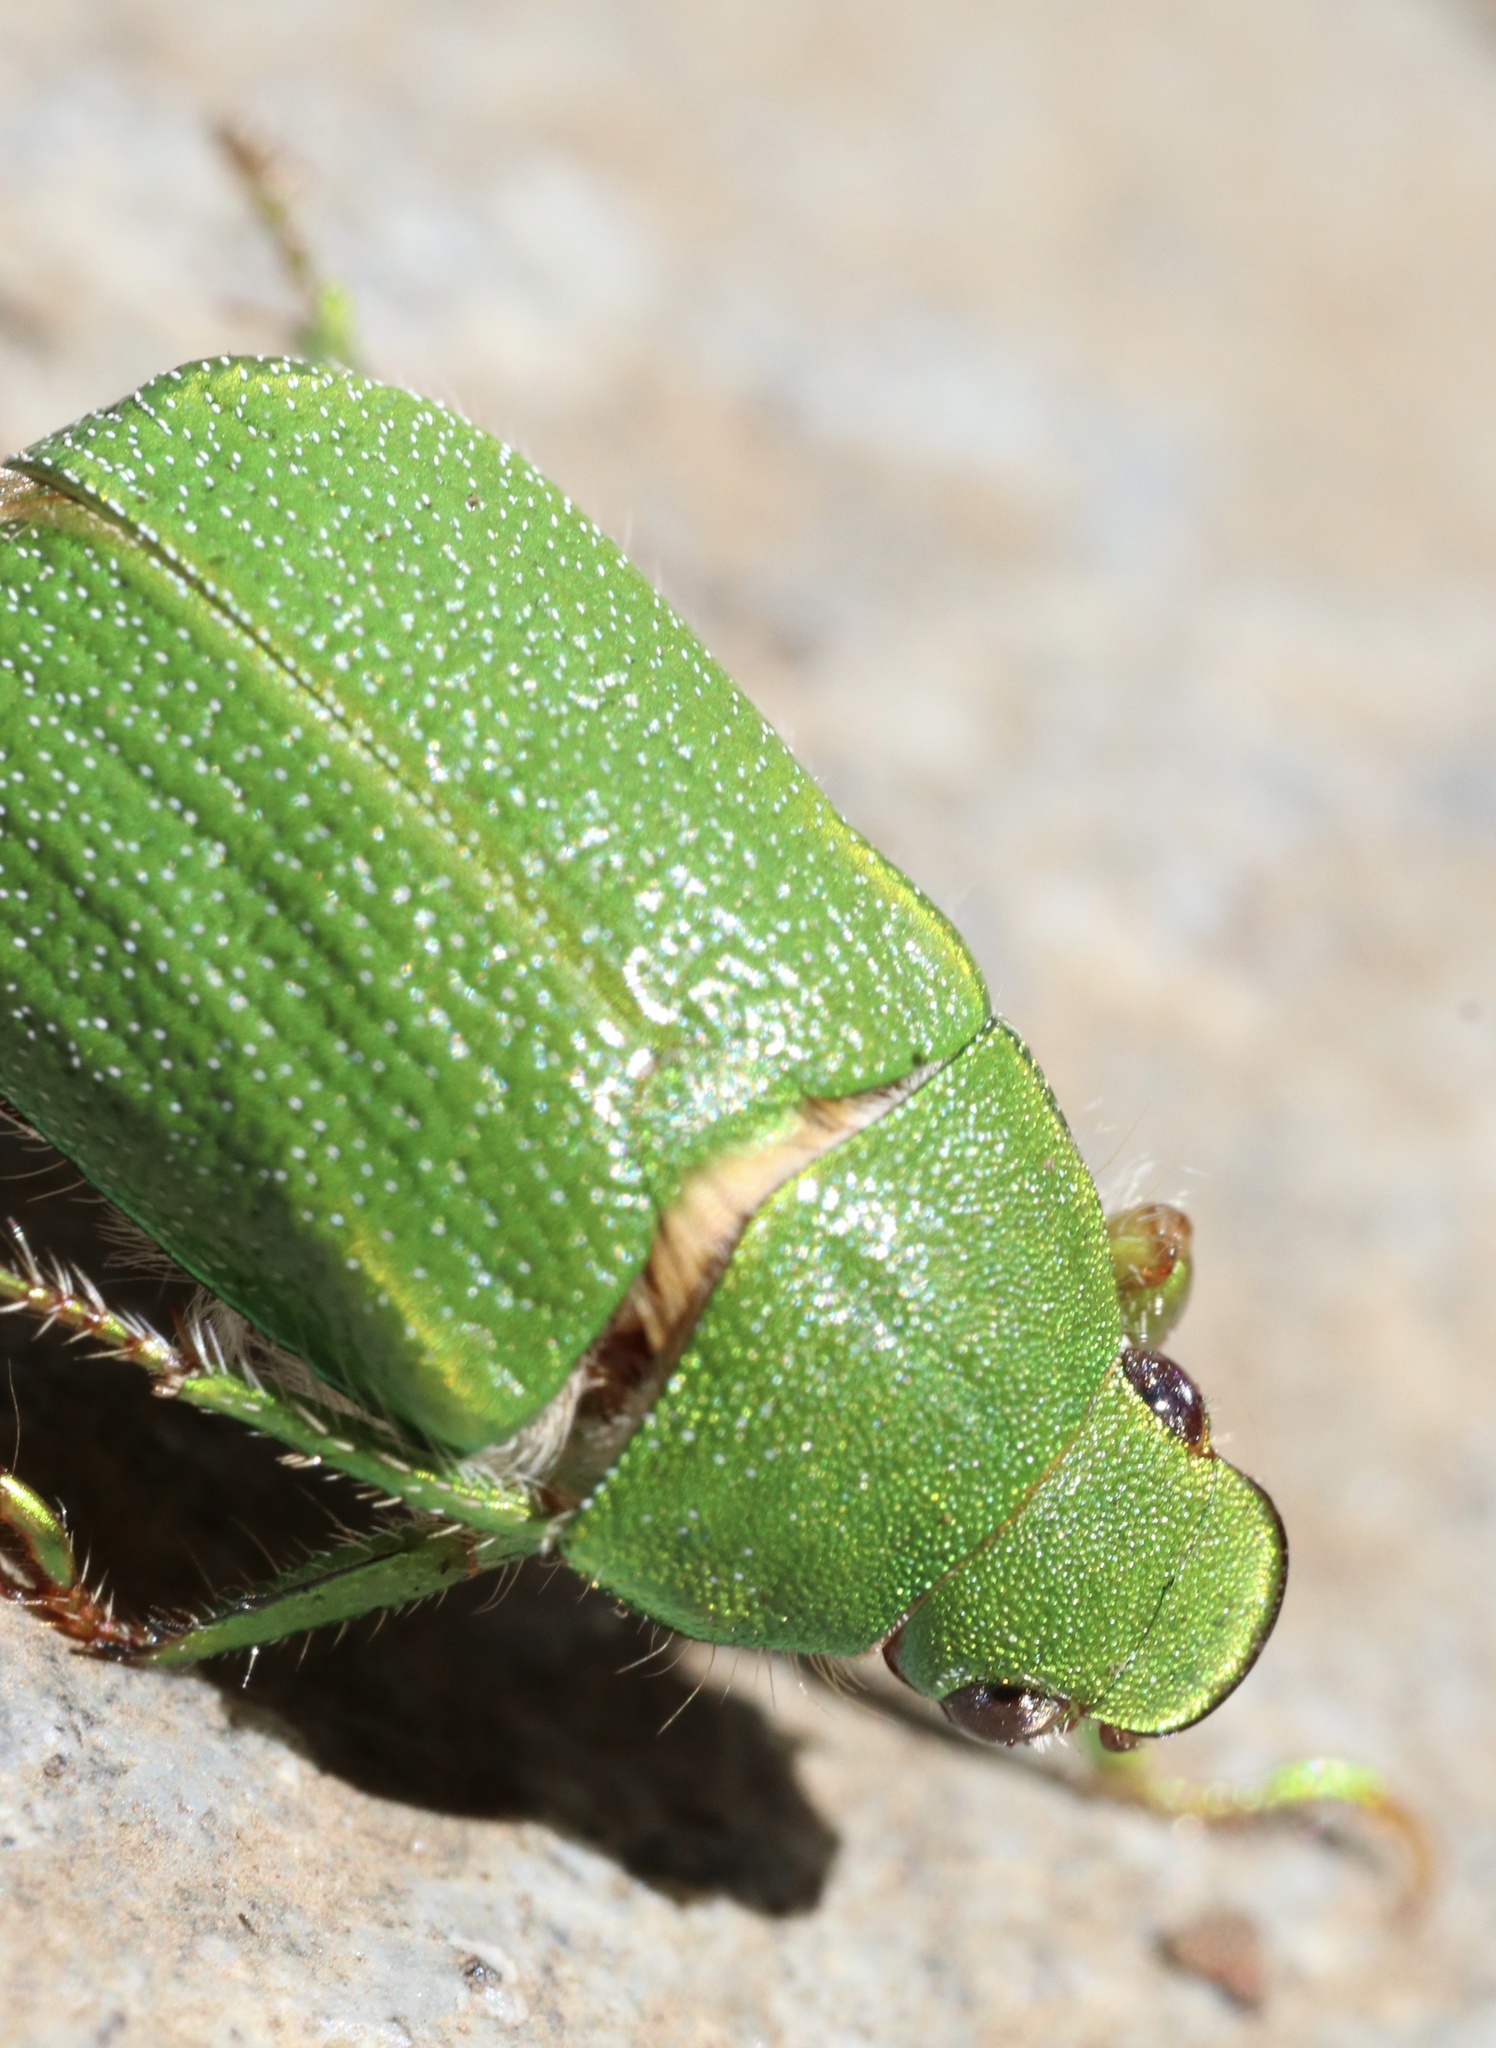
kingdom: Animalia
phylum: Arthropoda
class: Insecta
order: Coleoptera
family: Scarabaeidae
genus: Hylamorpha
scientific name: Hylamorpha elegans
